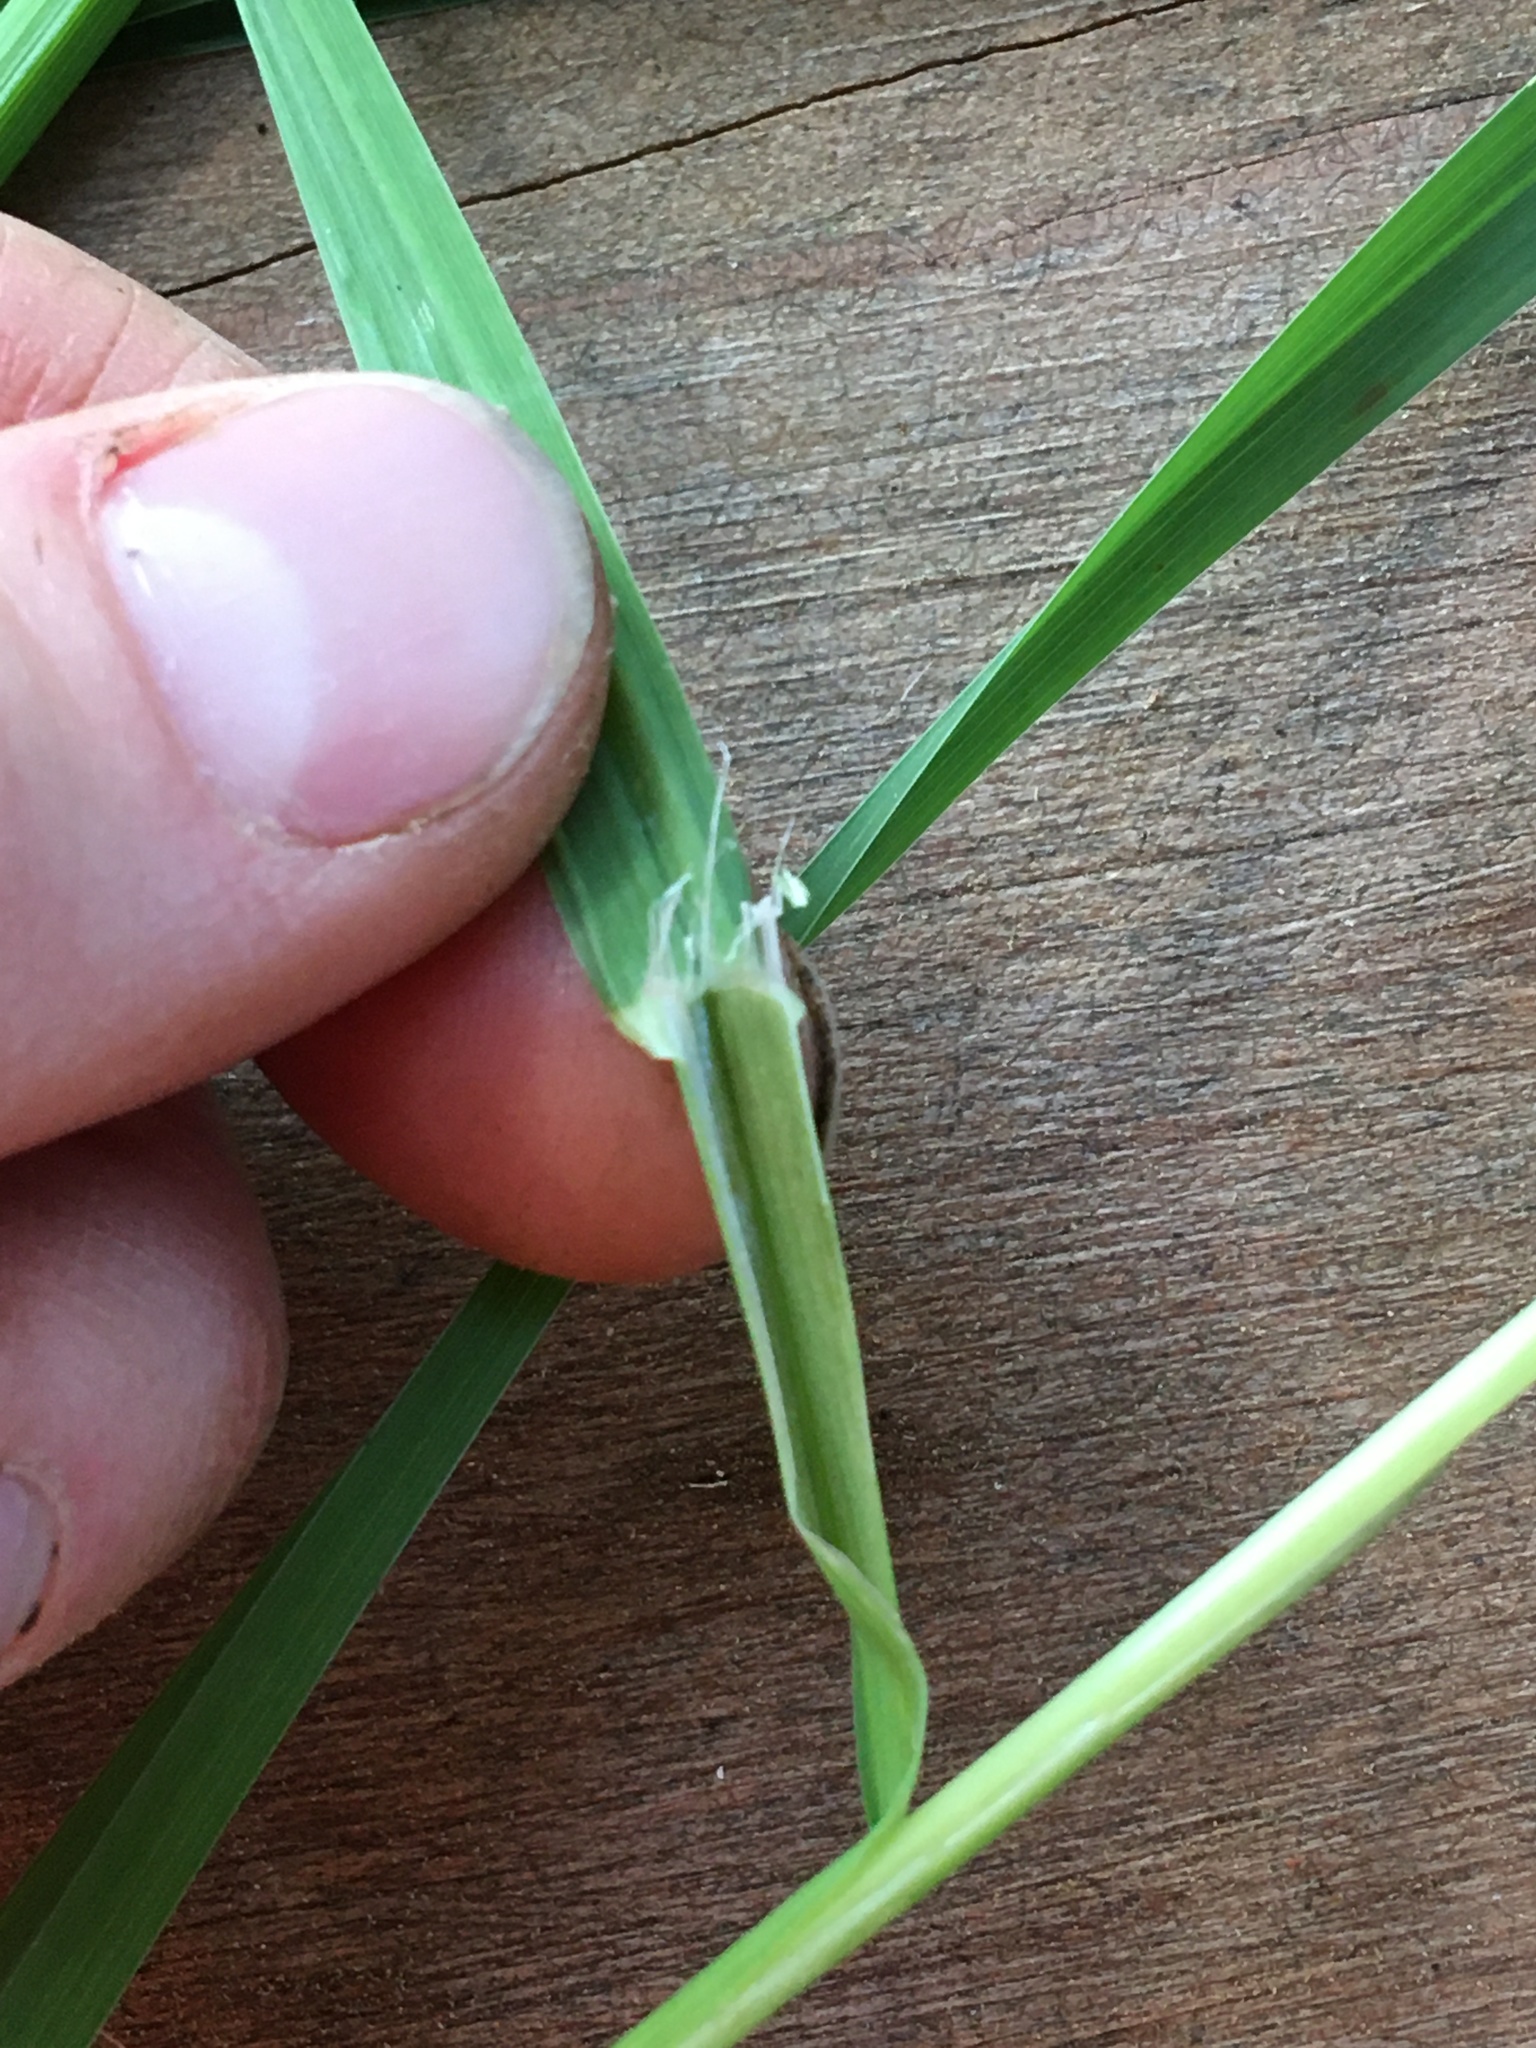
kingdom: Plantae
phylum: Tracheophyta
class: Liliopsida
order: Poales
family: Poaceae
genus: Dactylis
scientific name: Dactylis glomerata
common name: Orchardgrass
